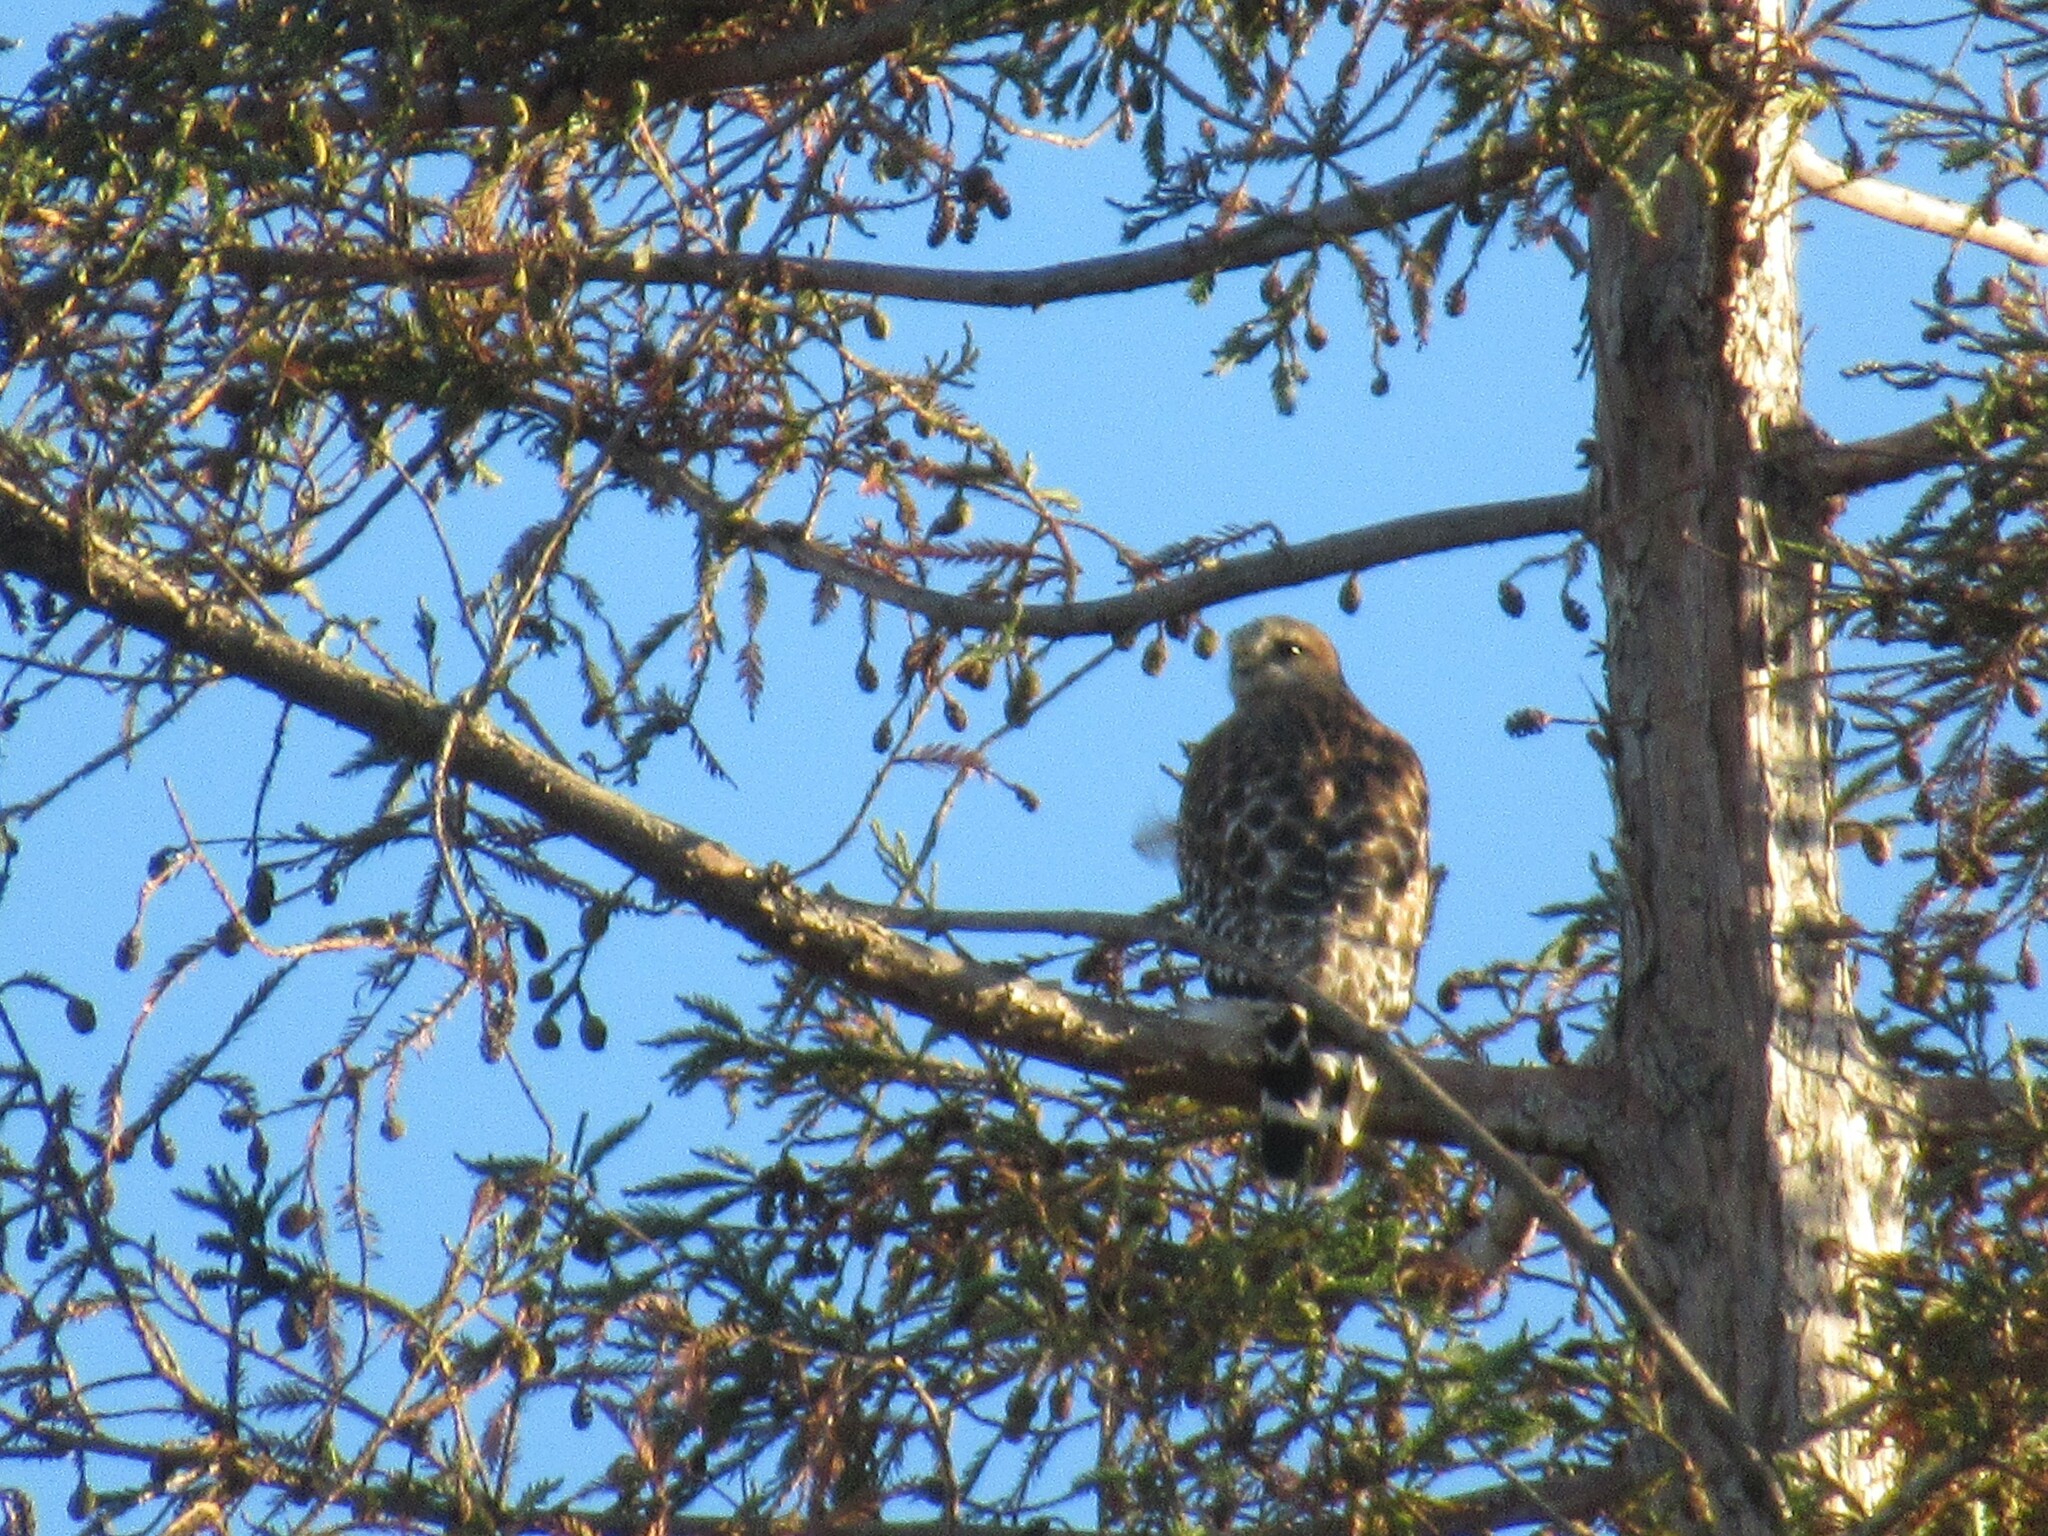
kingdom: Animalia
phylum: Chordata
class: Aves
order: Accipitriformes
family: Accipitridae
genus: Buteo
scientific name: Buteo lineatus
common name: Red-shouldered hawk
